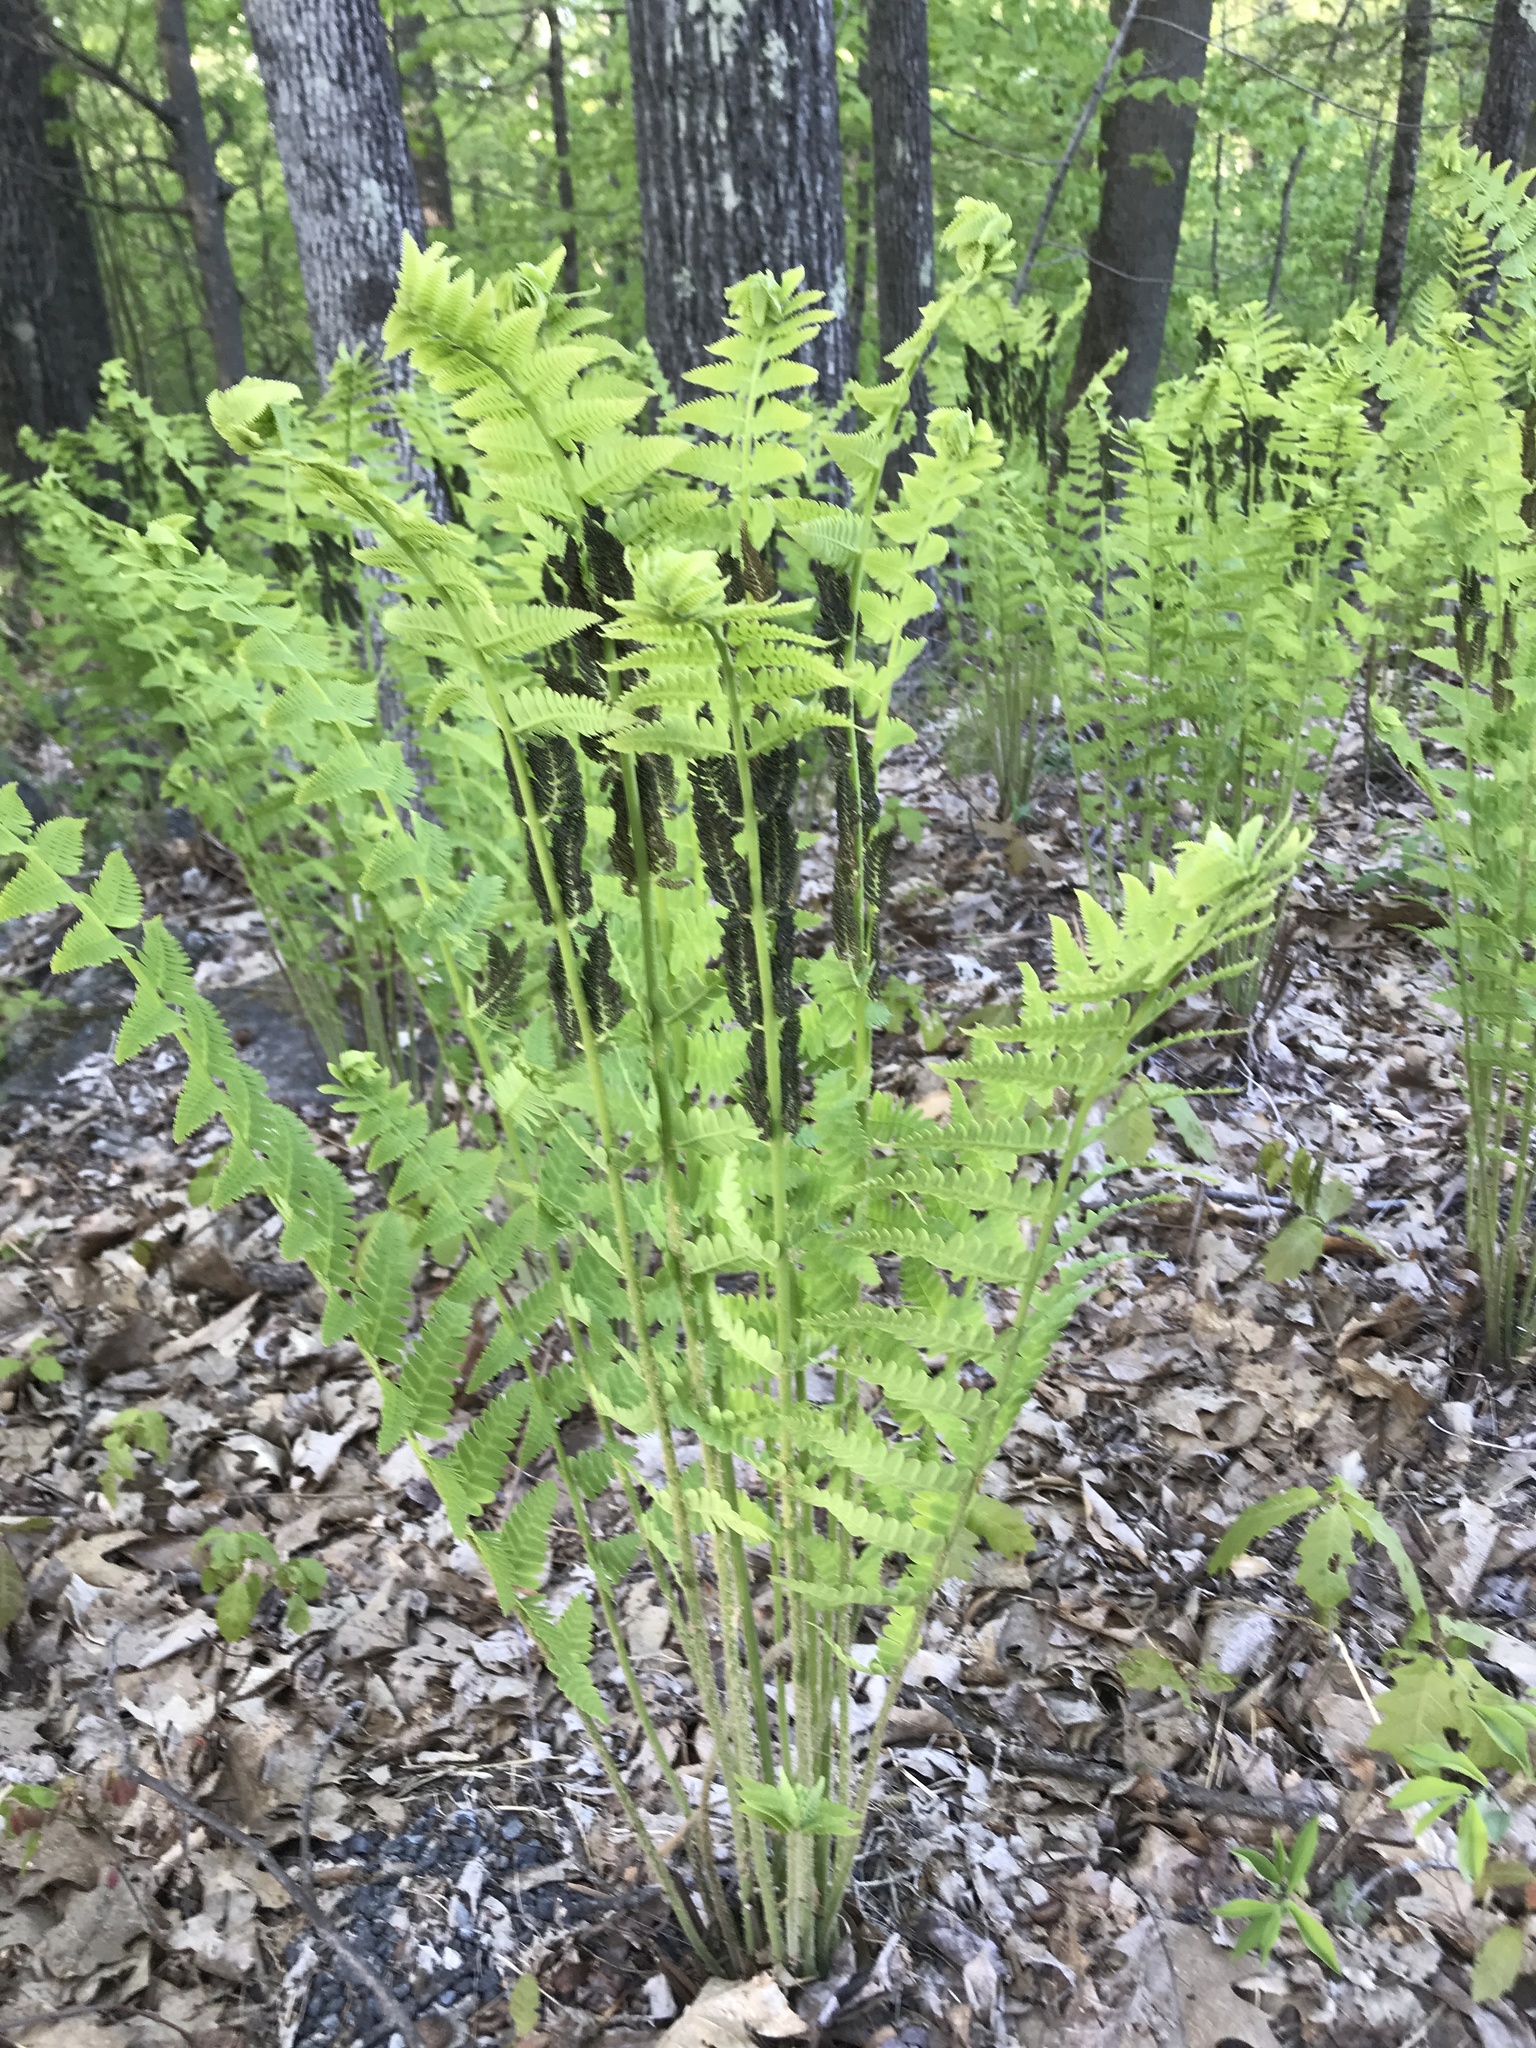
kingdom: Plantae
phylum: Tracheophyta
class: Polypodiopsida
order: Osmundales
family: Osmundaceae
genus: Claytosmunda
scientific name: Claytosmunda claytoniana
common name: Clayton's fern
